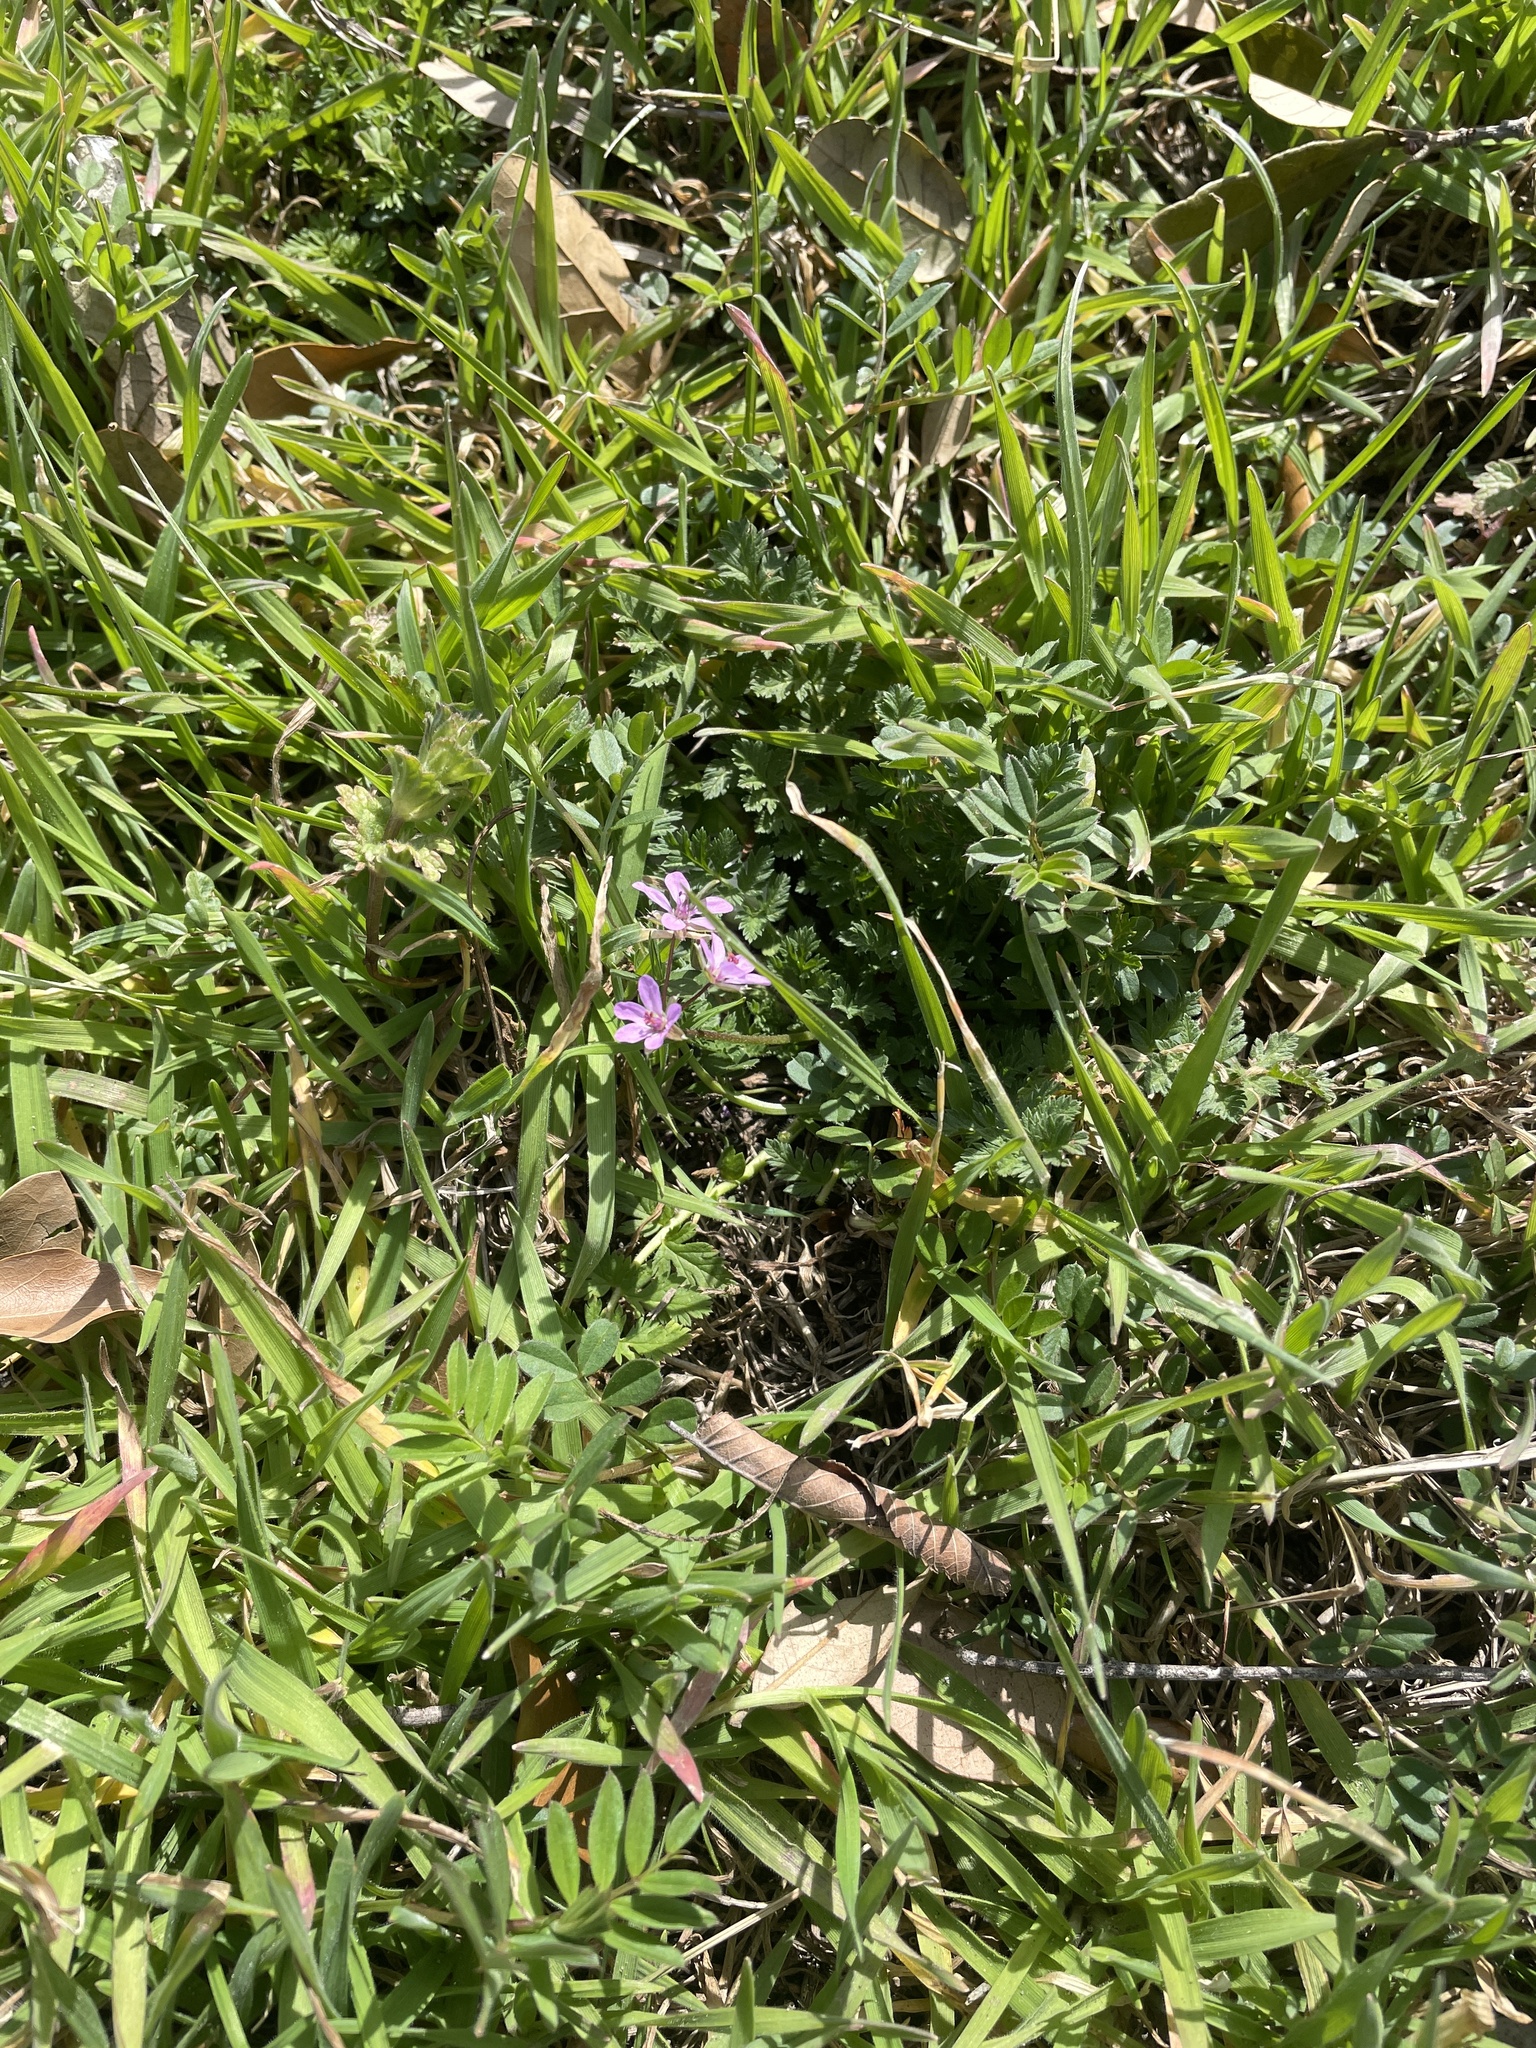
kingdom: Plantae
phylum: Tracheophyta
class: Magnoliopsida
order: Geraniales
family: Geraniaceae
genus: Erodium
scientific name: Erodium cicutarium
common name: Common stork's-bill
